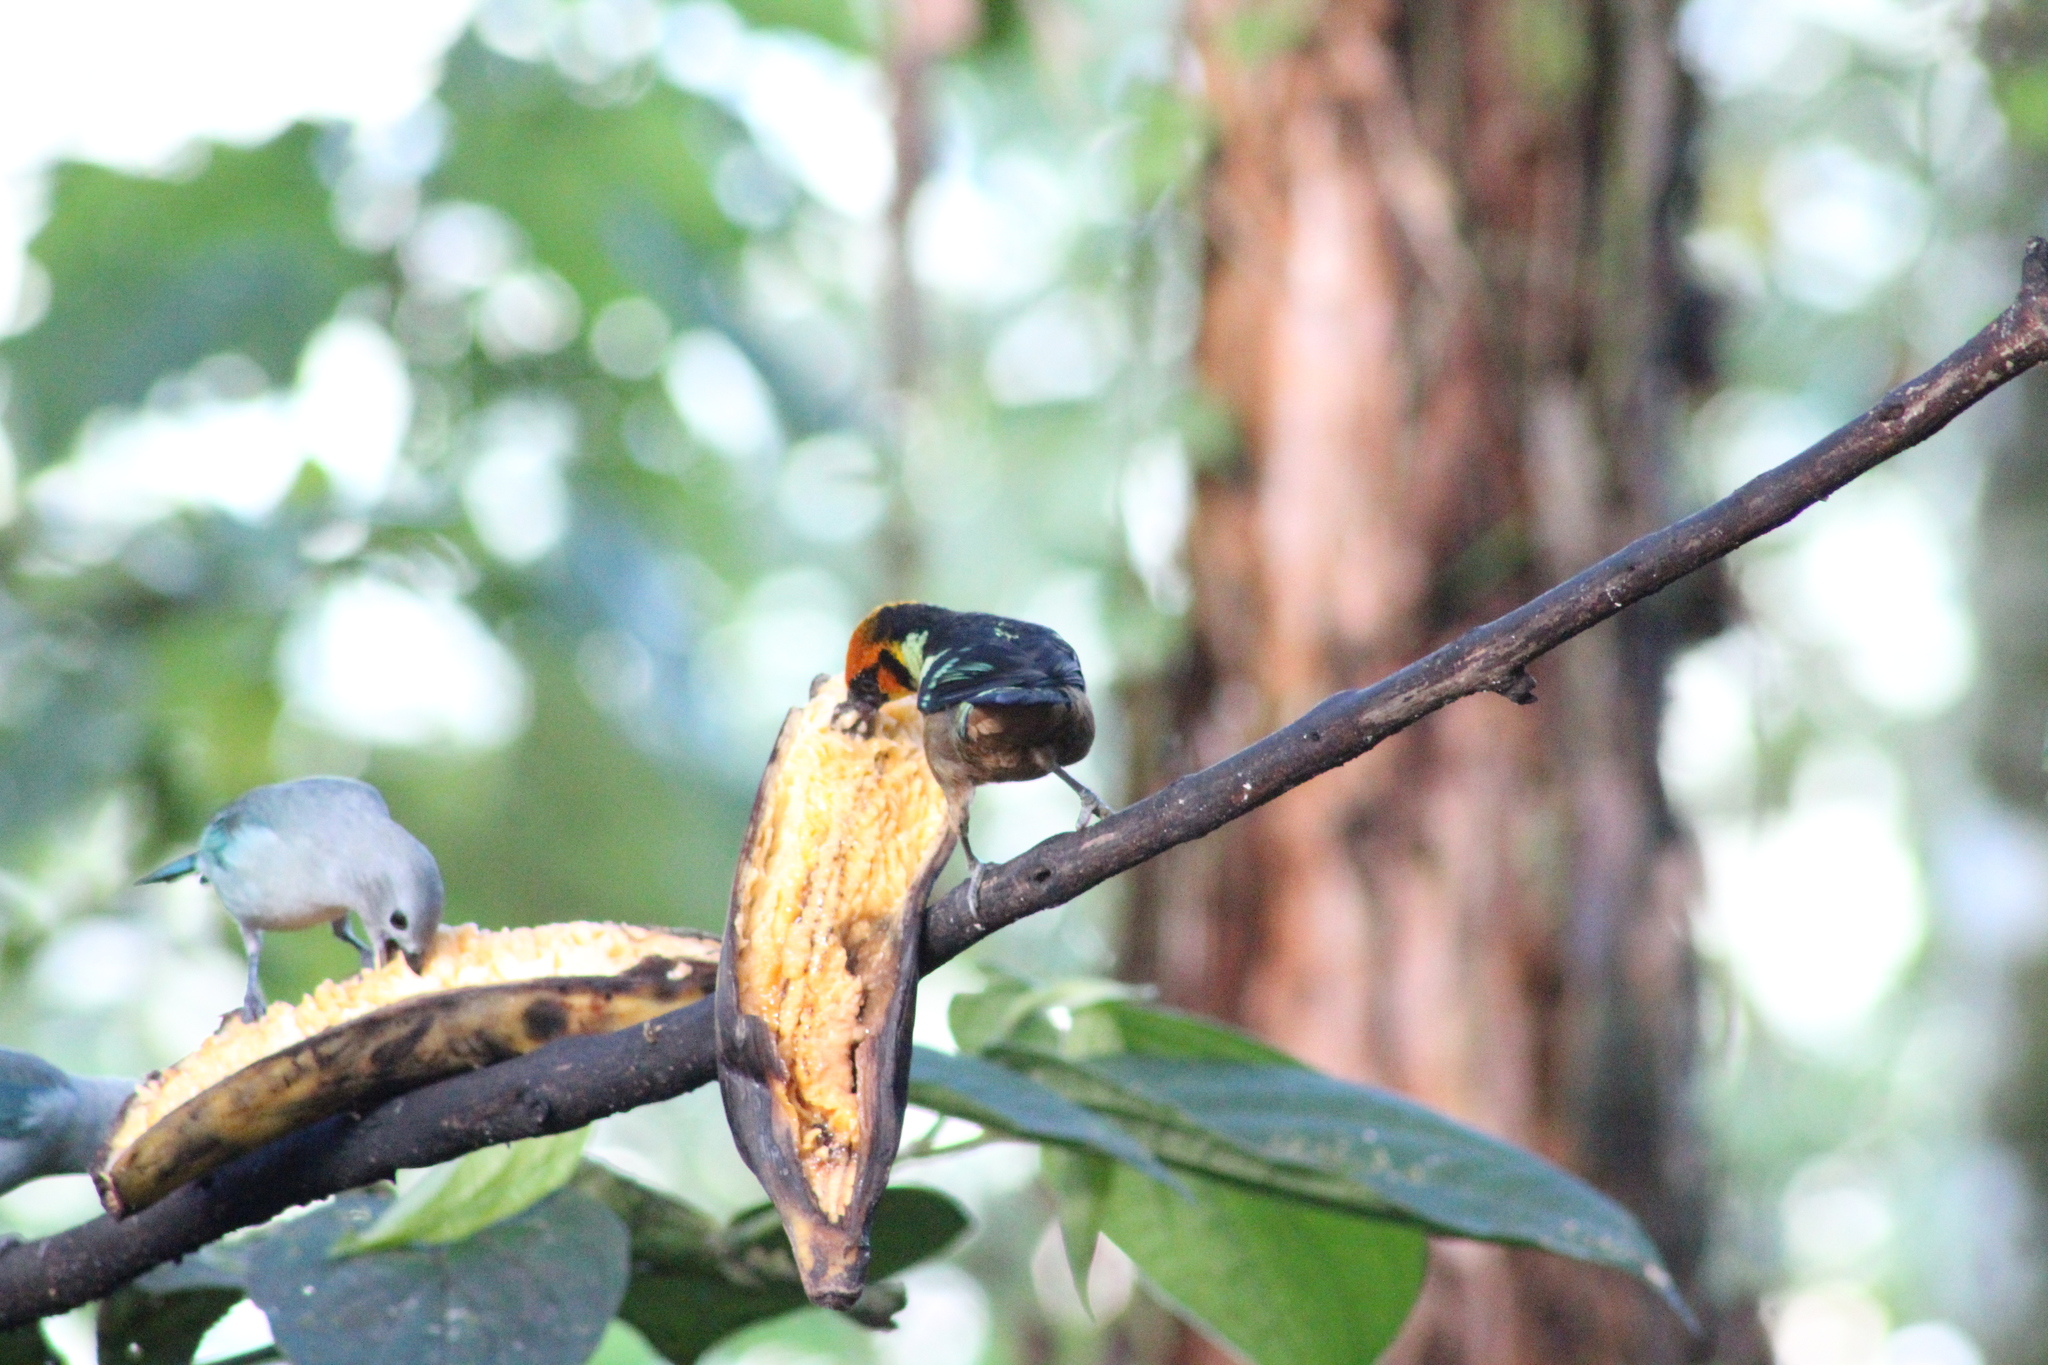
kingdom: Animalia
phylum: Chordata
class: Aves
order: Passeriformes
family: Thraupidae
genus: Tangara
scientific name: Tangara parzudakii
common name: Flame-faced tanager
